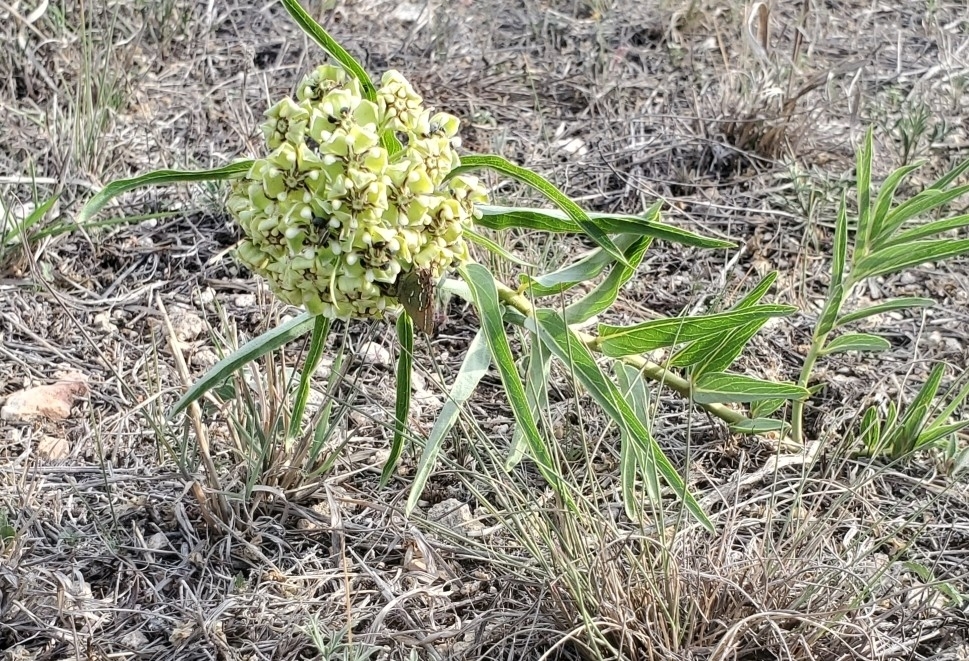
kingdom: Plantae
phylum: Tracheophyta
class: Magnoliopsida
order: Gentianales
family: Apocynaceae
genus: Asclepias
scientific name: Asclepias asperula
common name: Antelope horns
